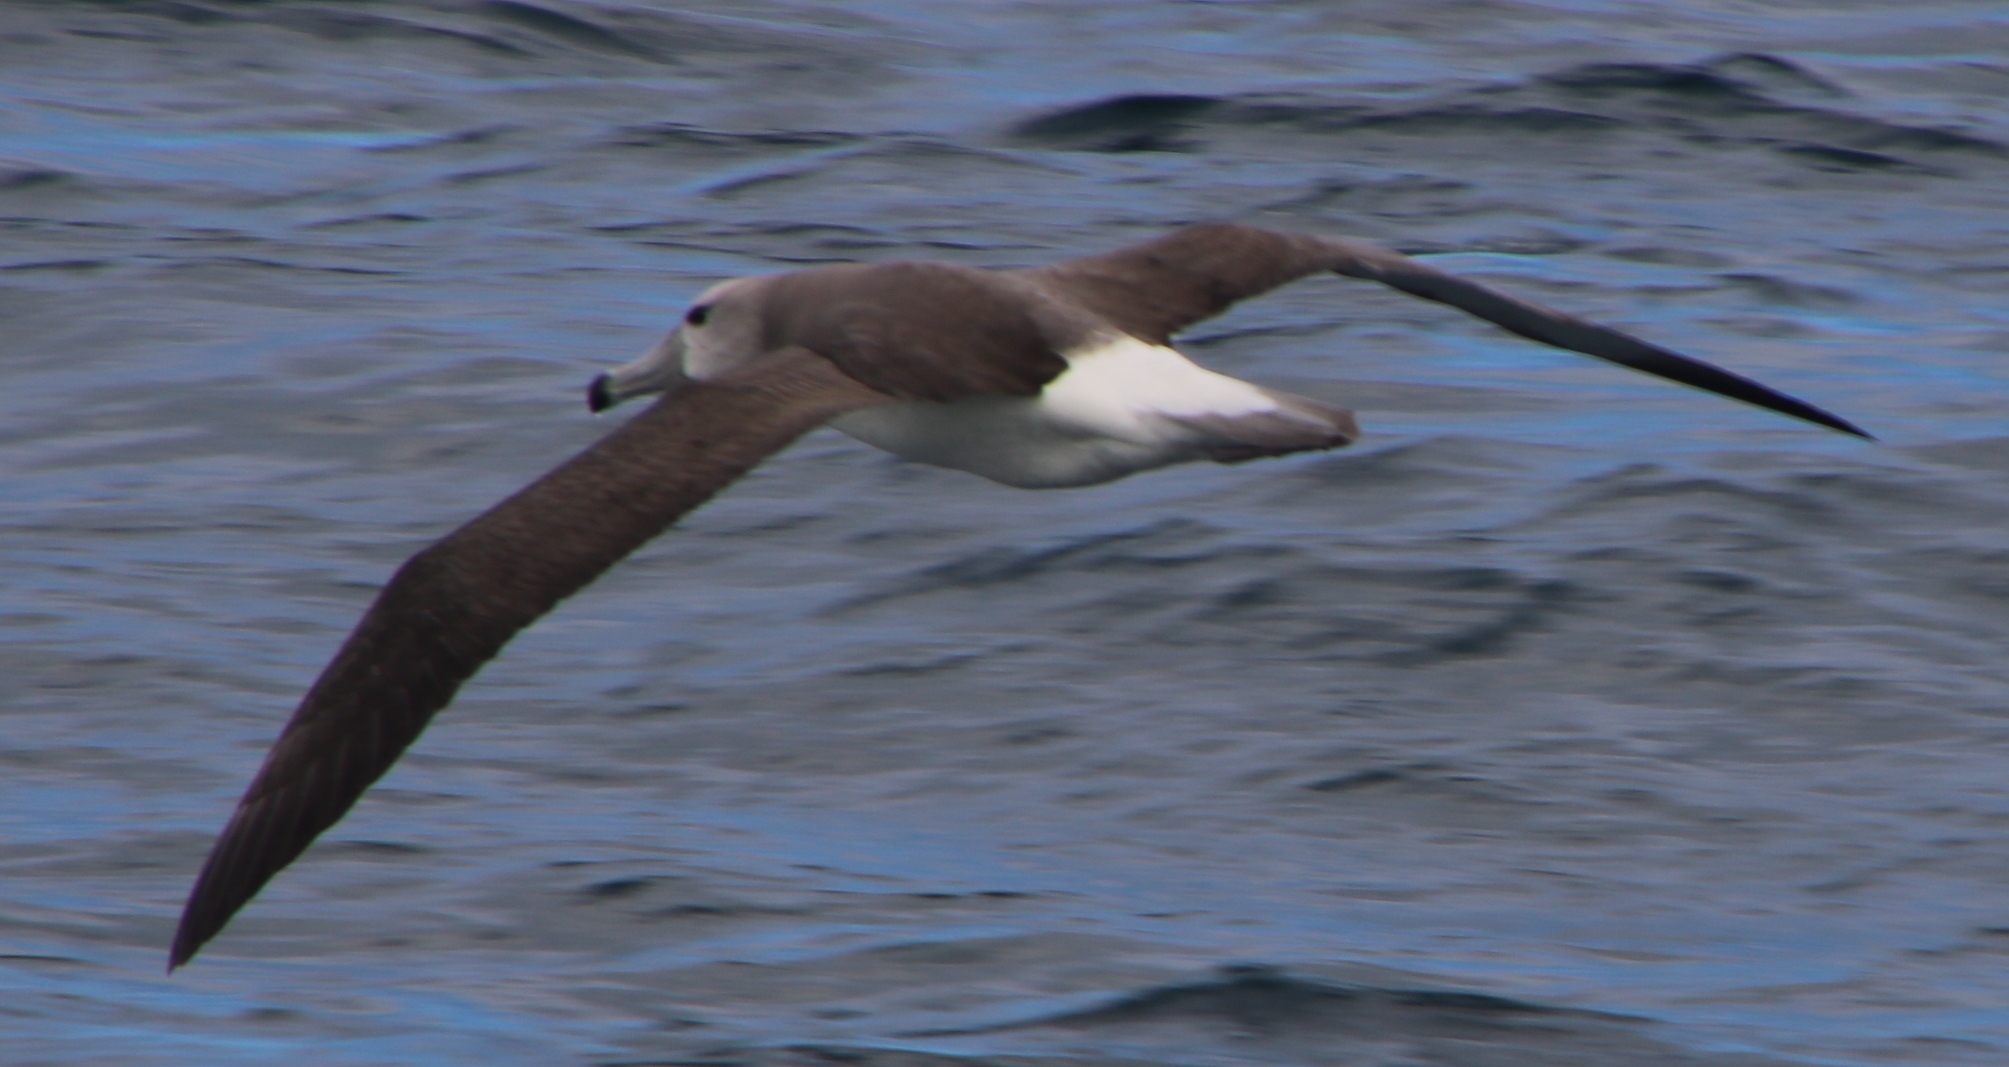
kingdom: Animalia
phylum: Chordata
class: Aves
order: Procellariiformes
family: Diomedeidae
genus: Thalassarche
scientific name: Thalassarche cauta
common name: Shy albatross
